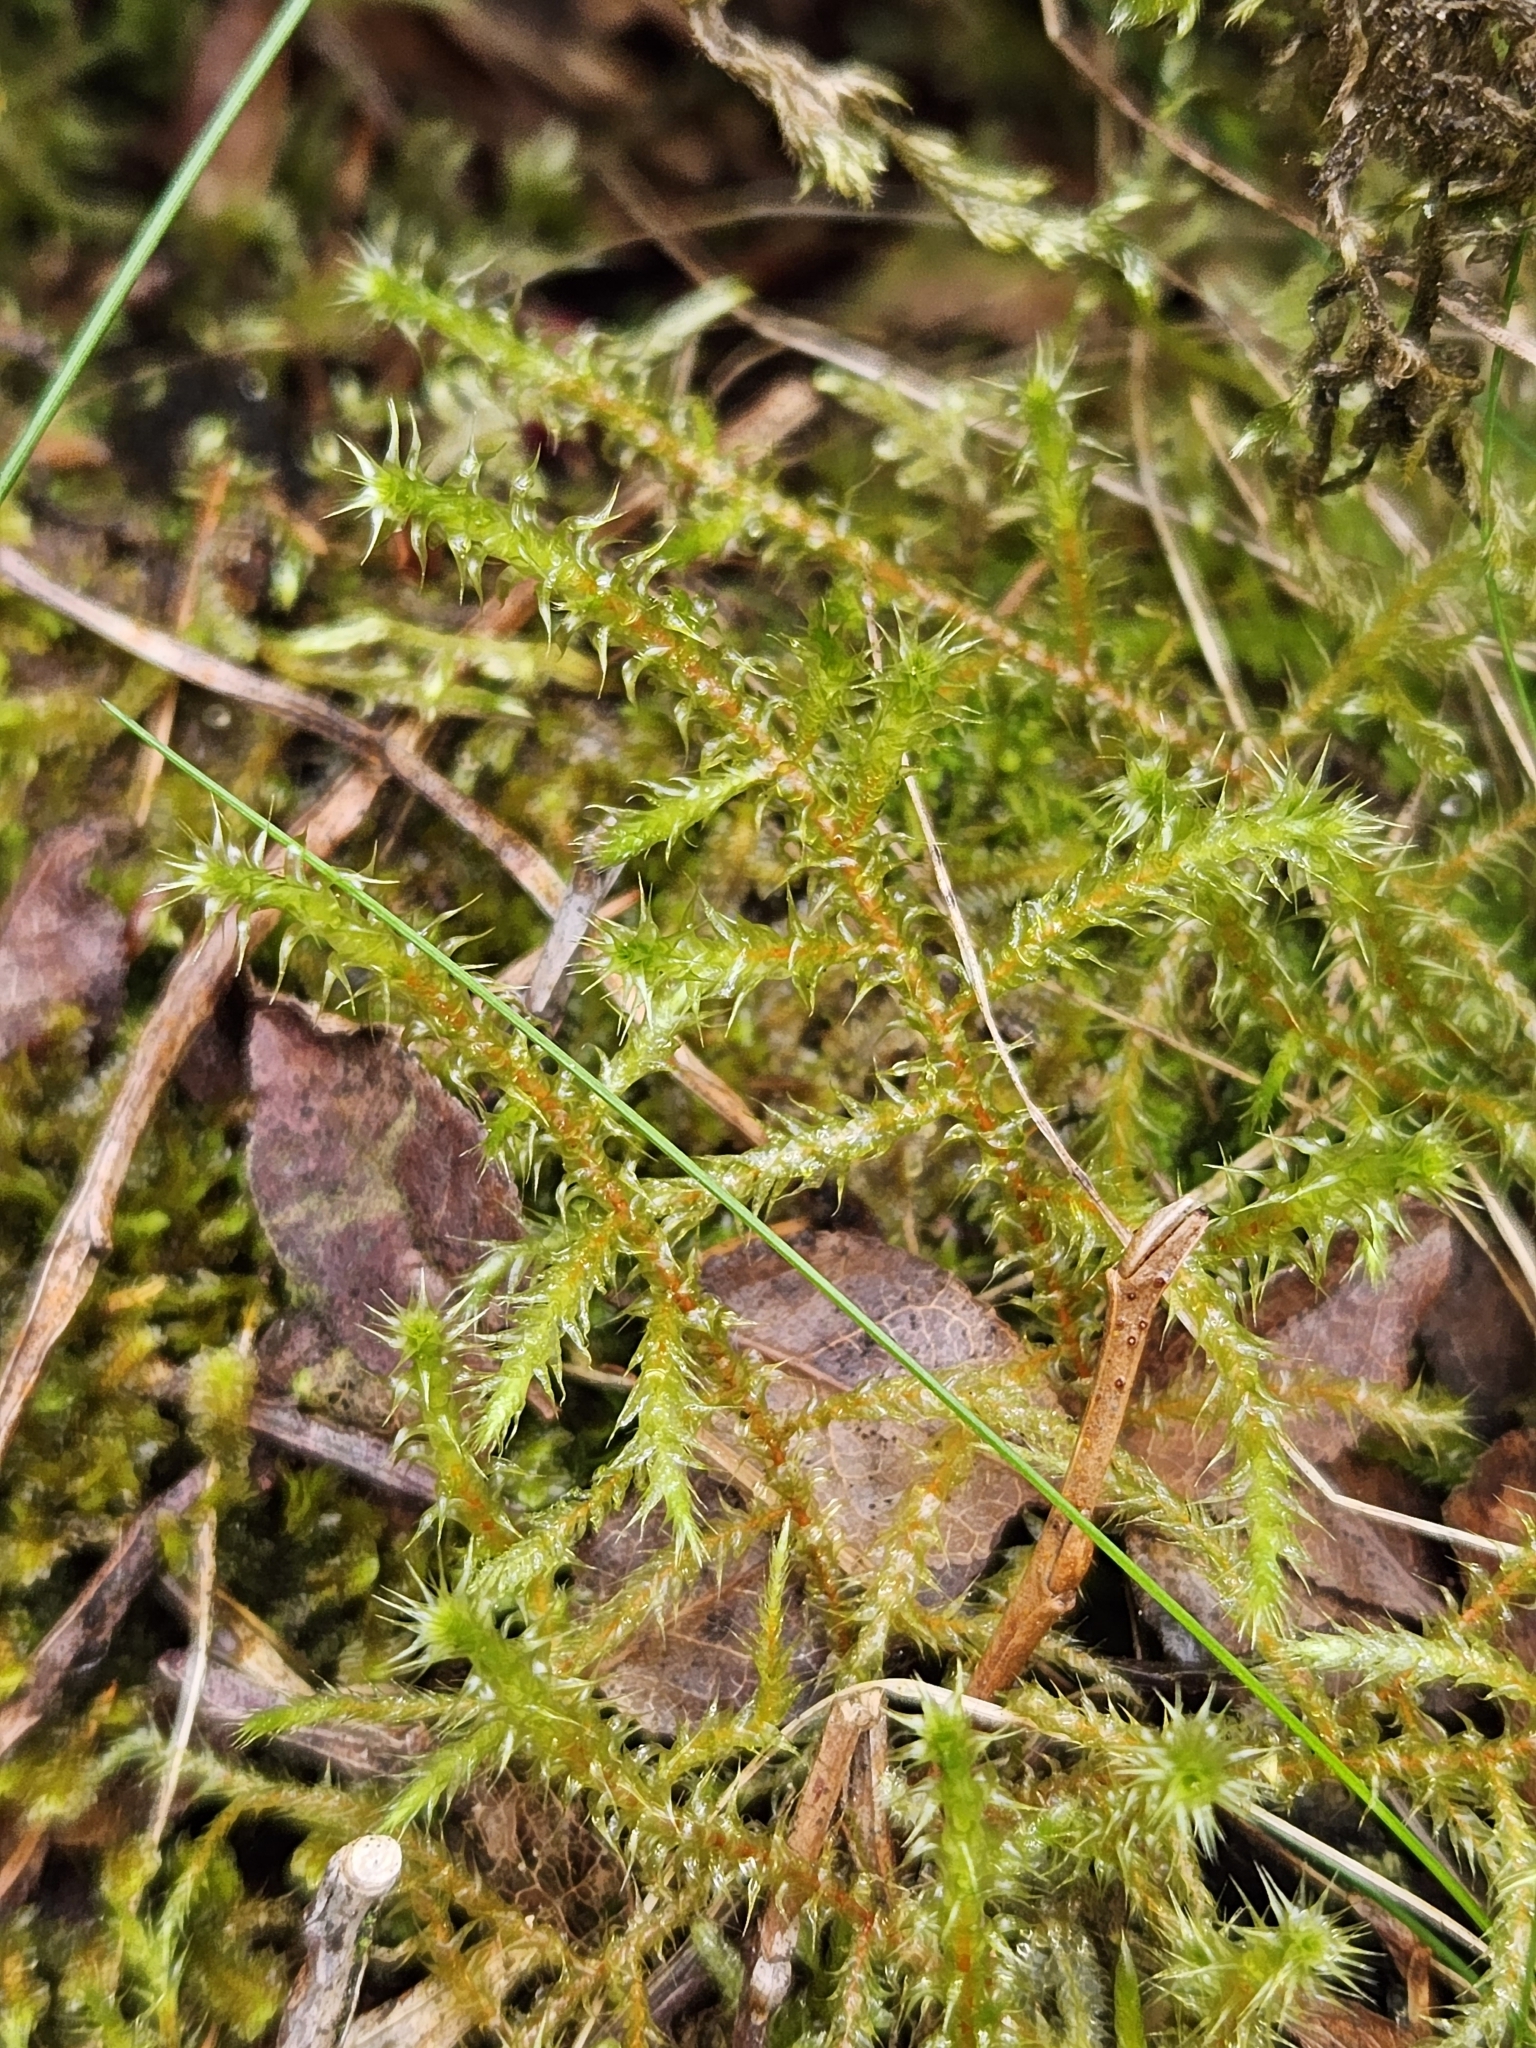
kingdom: Plantae
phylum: Bryophyta
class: Bryopsida
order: Hypnales
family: Hylocomiaceae
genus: Rhytidiadelphus
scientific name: Rhytidiadelphus squarrosus
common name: Springy turf-moss
